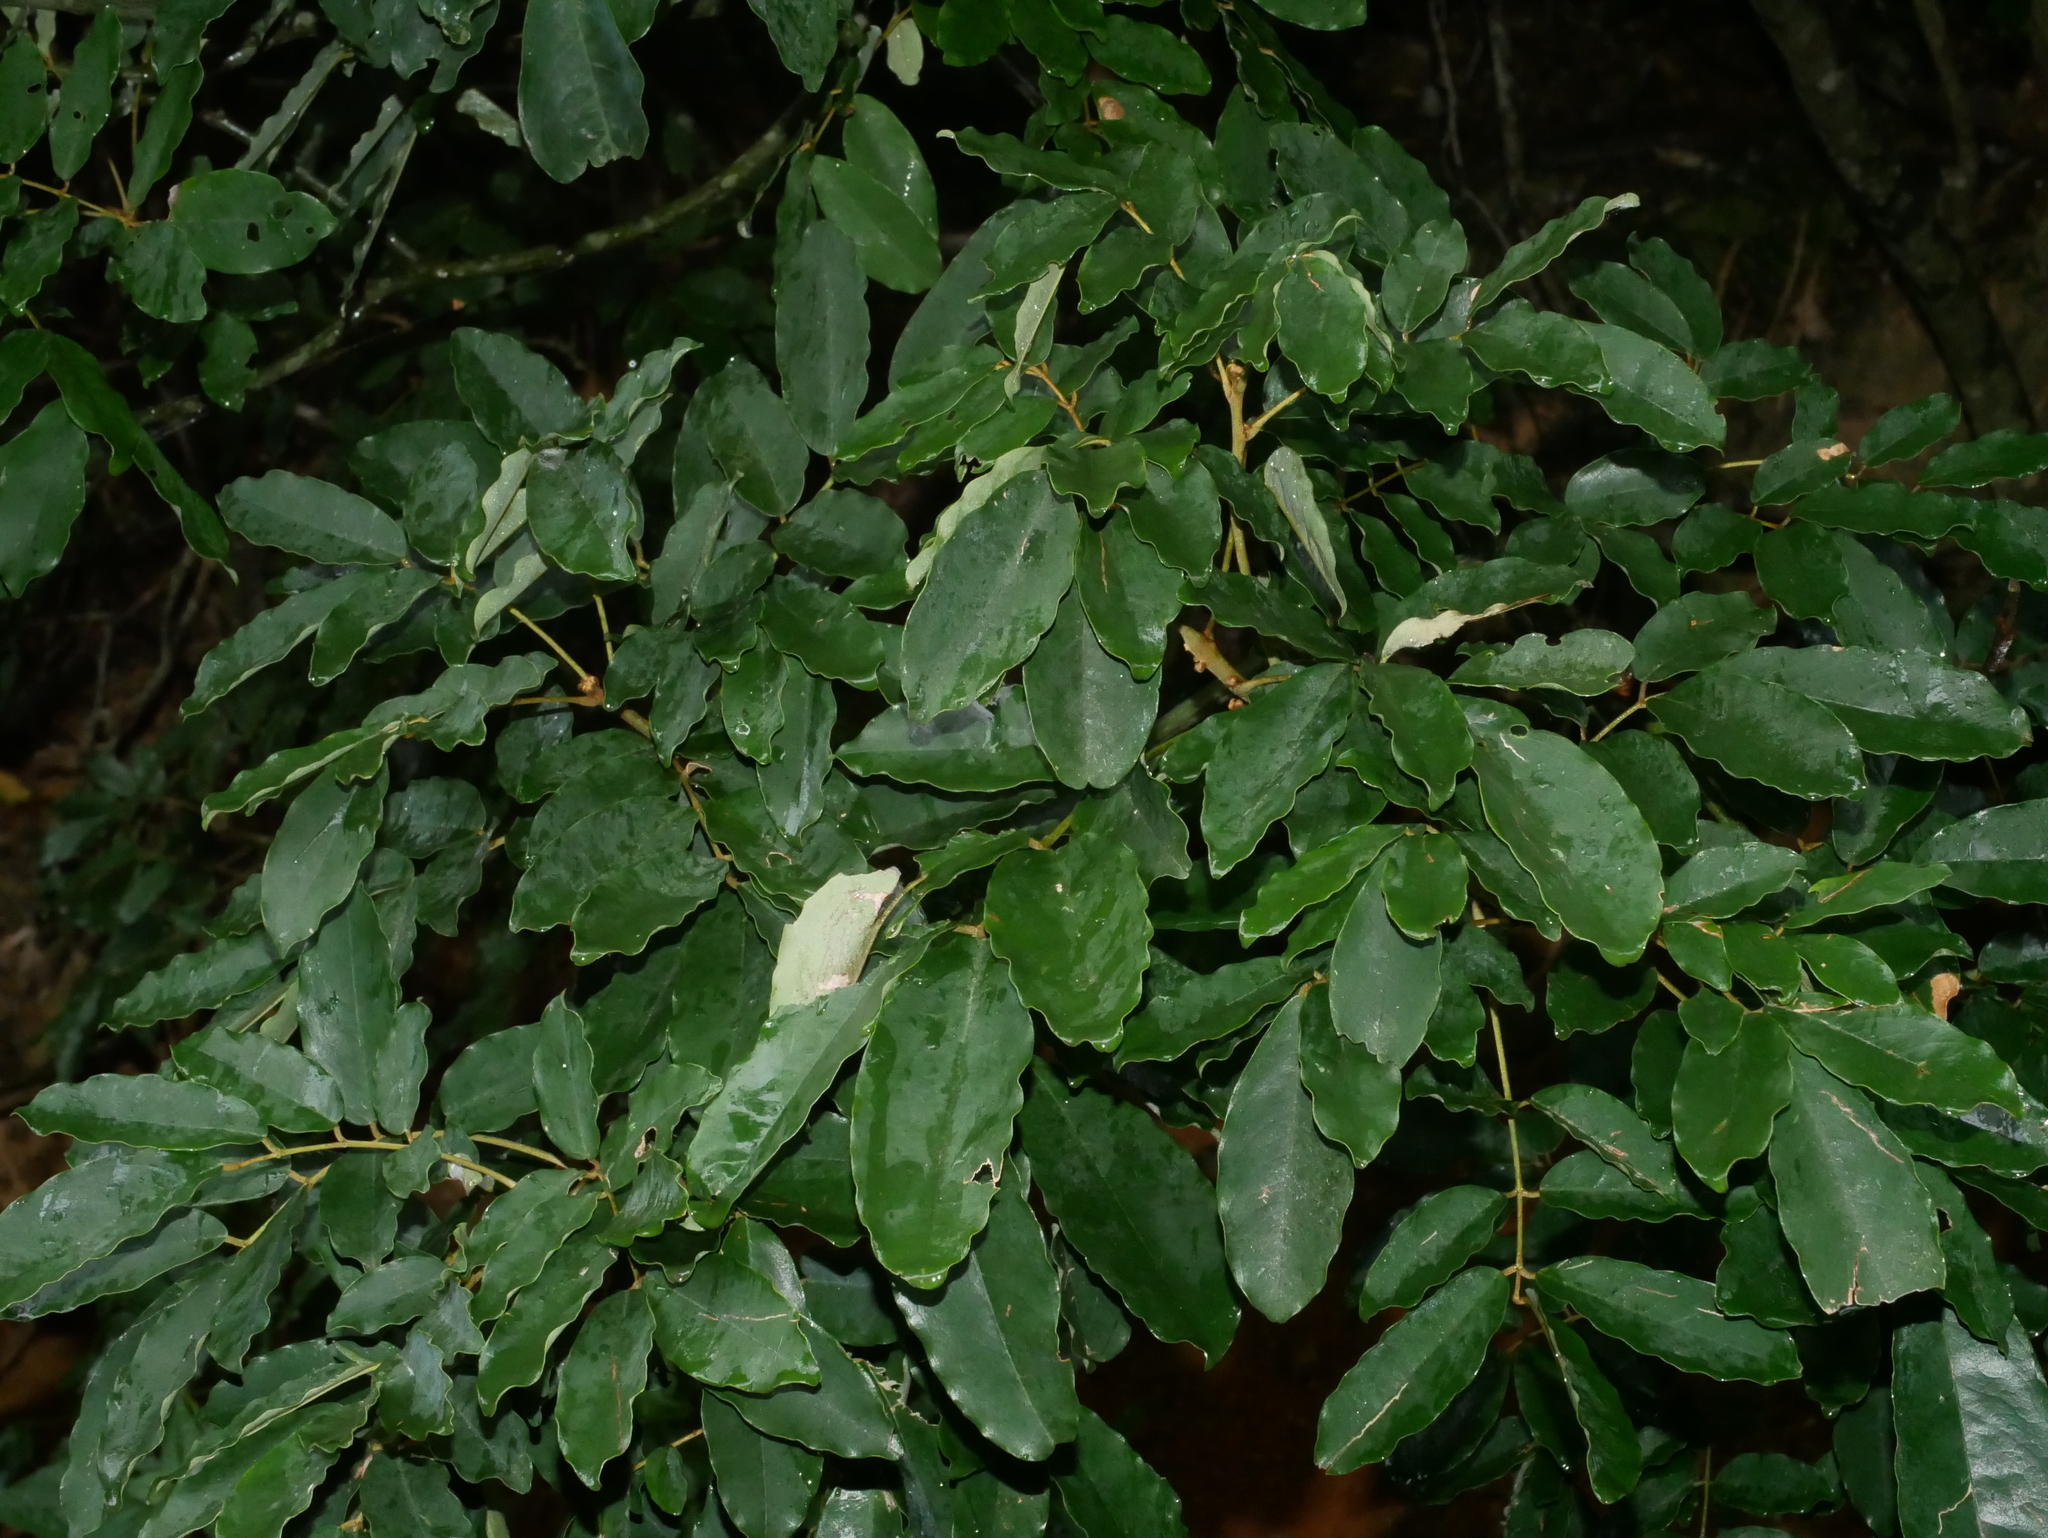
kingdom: Plantae
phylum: Tracheophyta
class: Magnoliopsida
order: Fabales
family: Fabaceae
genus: Ormosia
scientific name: Ormosia hengchuniana
